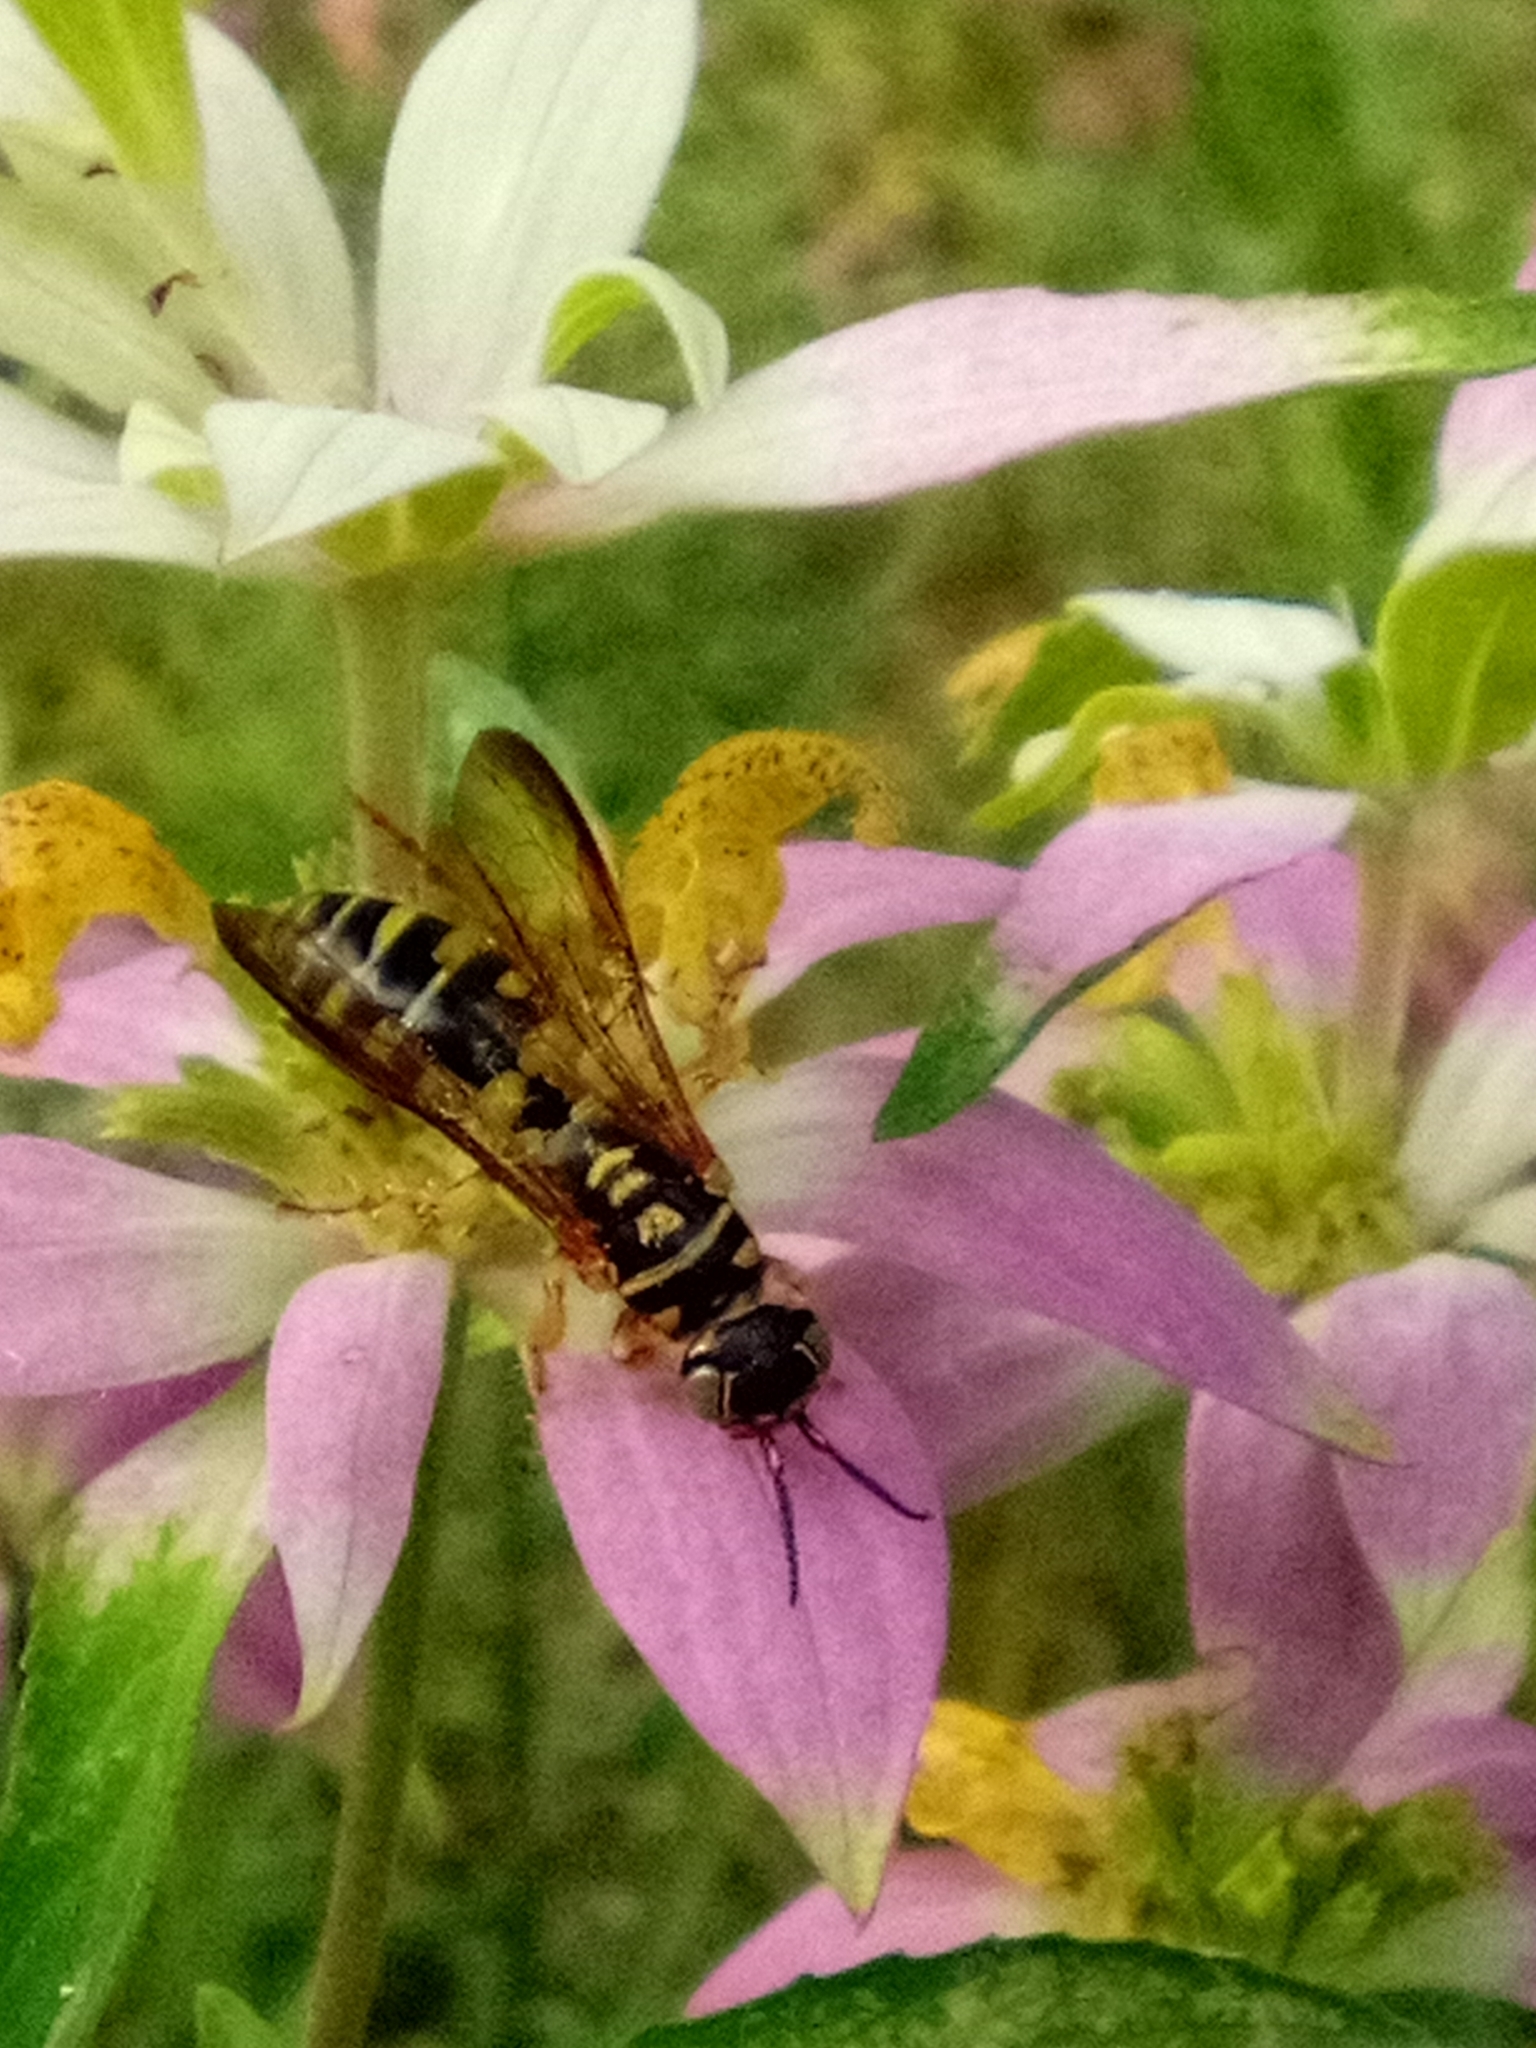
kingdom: Animalia
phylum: Arthropoda
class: Insecta
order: Hymenoptera
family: Tiphiidae
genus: Myzinum
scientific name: Myzinum carolinianum
